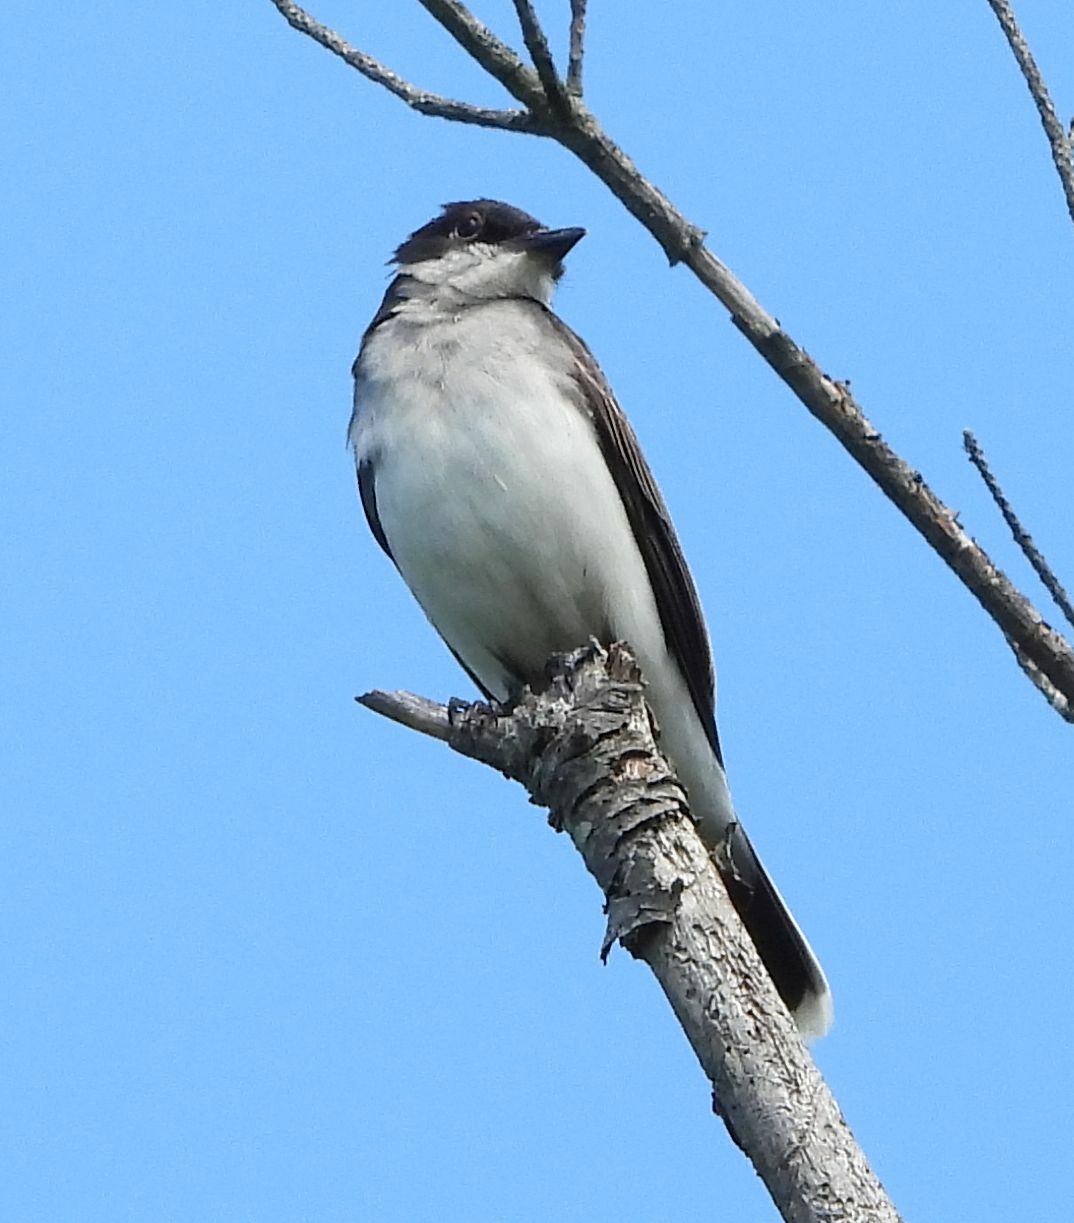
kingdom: Animalia
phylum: Chordata
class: Aves
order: Passeriformes
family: Tyrannidae
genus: Tyrannus
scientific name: Tyrannus tyrannus
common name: Eastern kingbird
